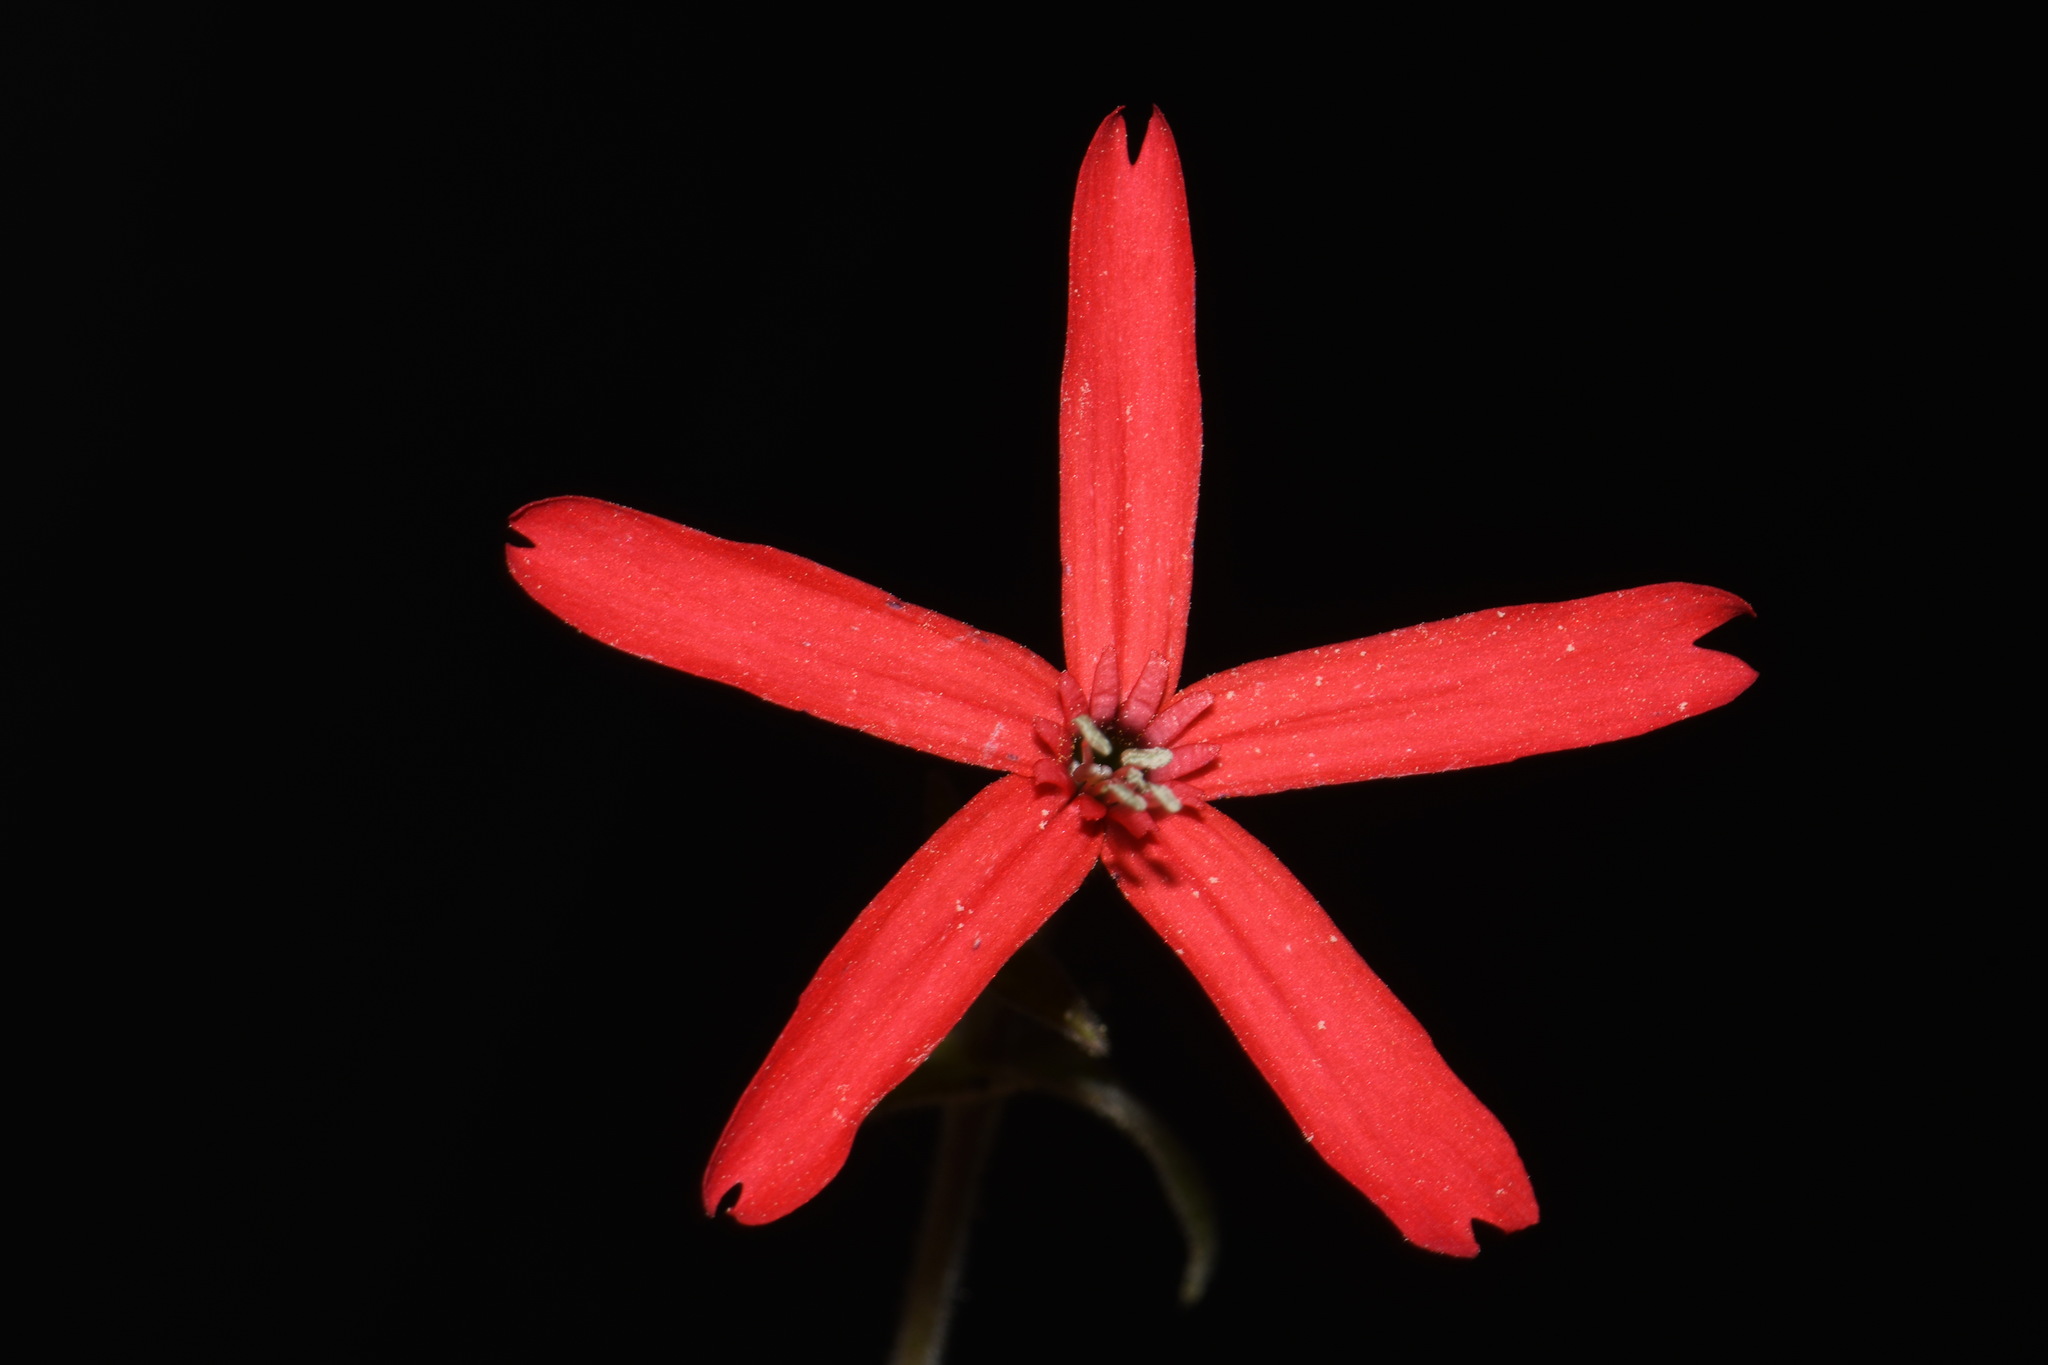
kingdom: Plantae
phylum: Tracheophyta
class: Magnoliopsida
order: Caryophyllales
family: Caryophyllaceae
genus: Silene
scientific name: Silene virginica
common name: Fire-pink
